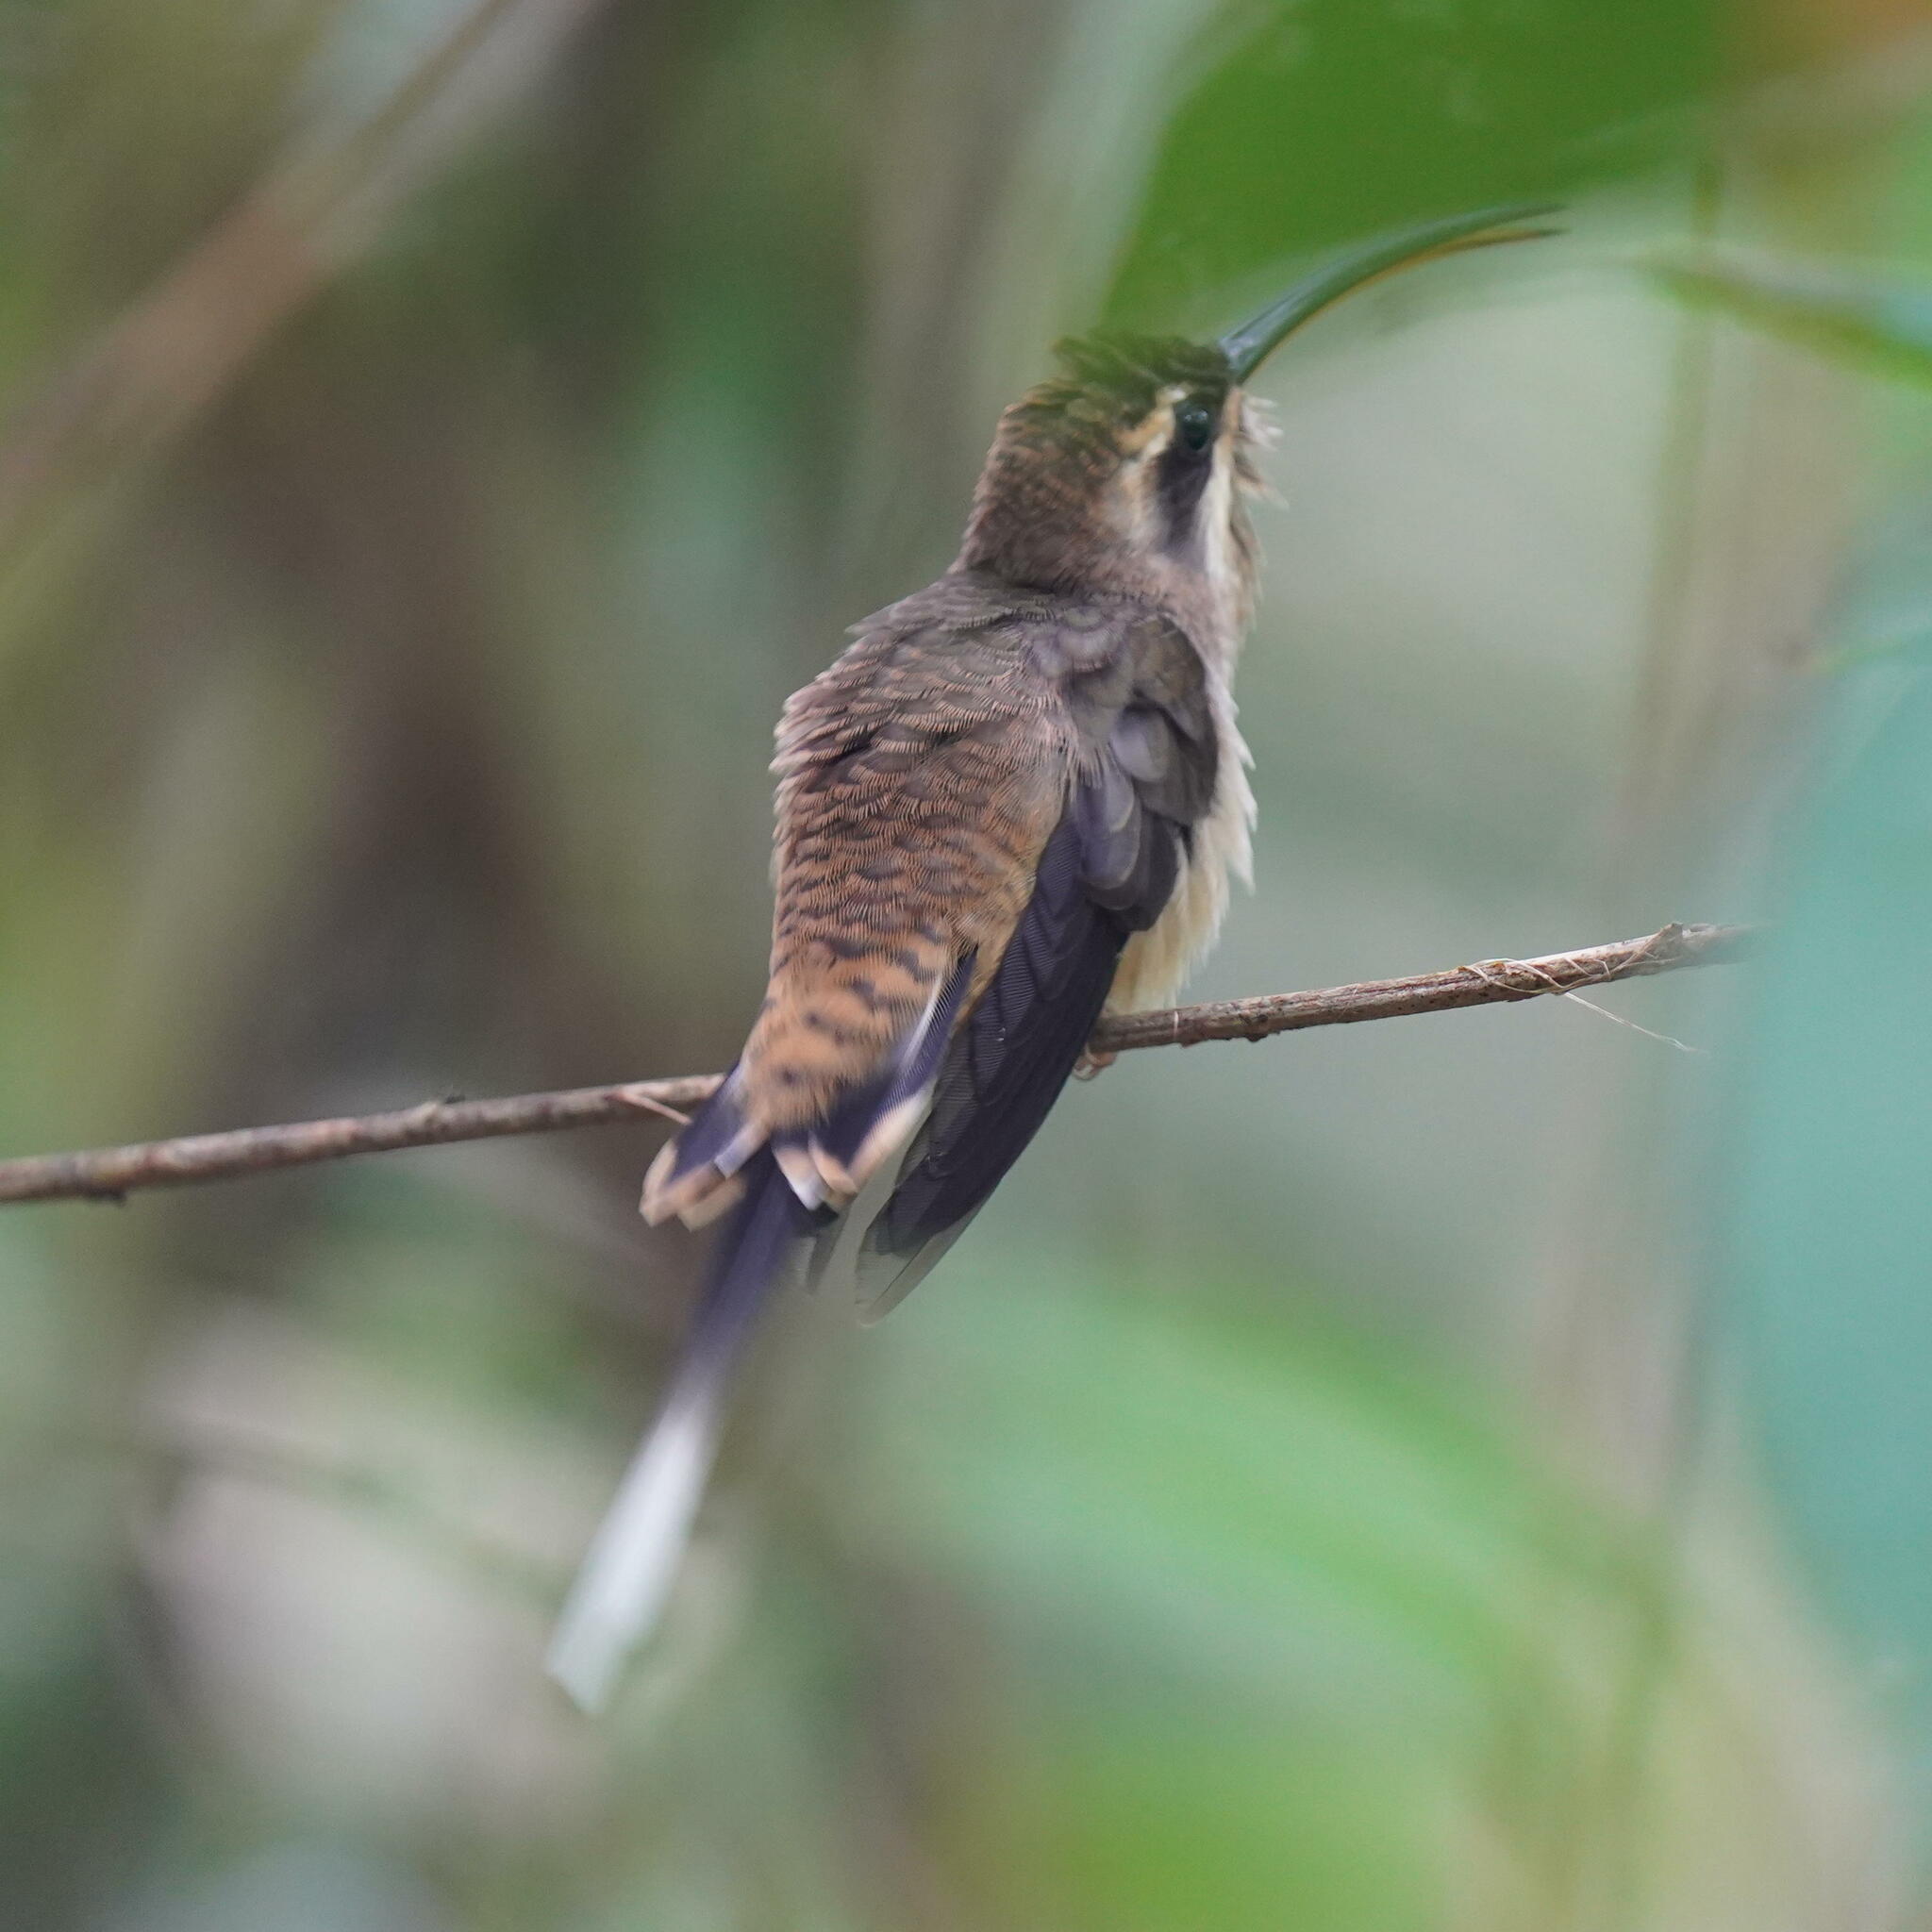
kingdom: Animalia
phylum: Chordata
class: Aves
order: Apodiformes
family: Trochilidae
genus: Phaethornis
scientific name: Phaethornis longirostris
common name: Long-billed hermit
